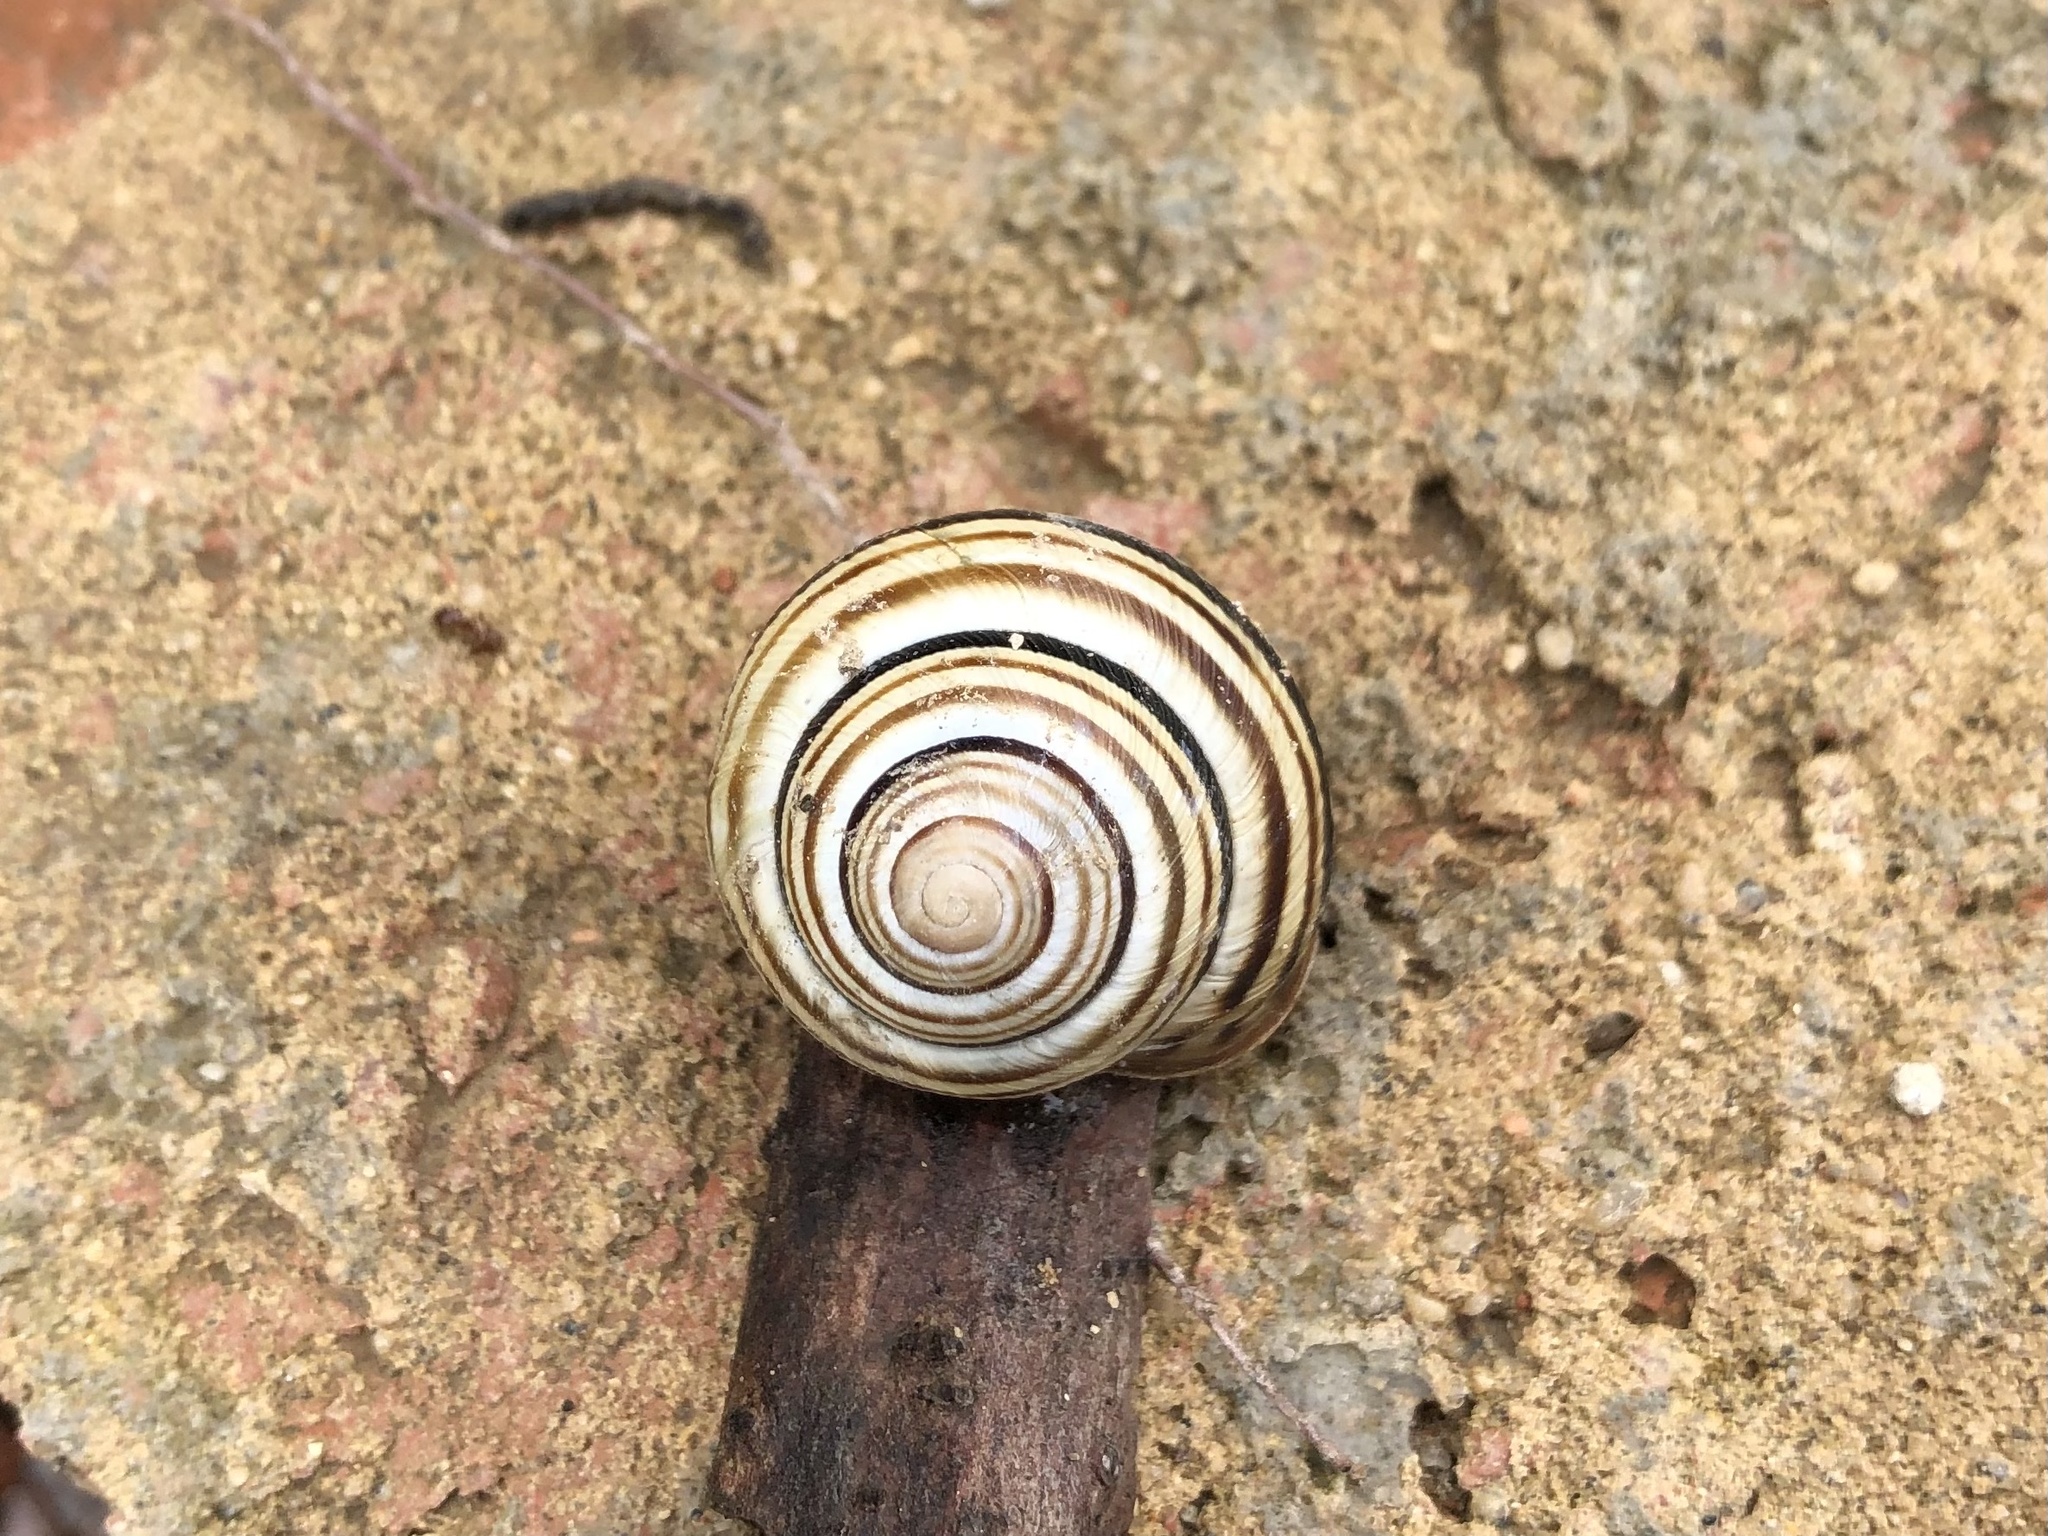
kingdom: Animalia
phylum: Mollusca
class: Gastropoda
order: Stylommatophora
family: Helicidae
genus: Caucasotachea
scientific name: Caucasotachea vindobonensis
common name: European helicid land snail
